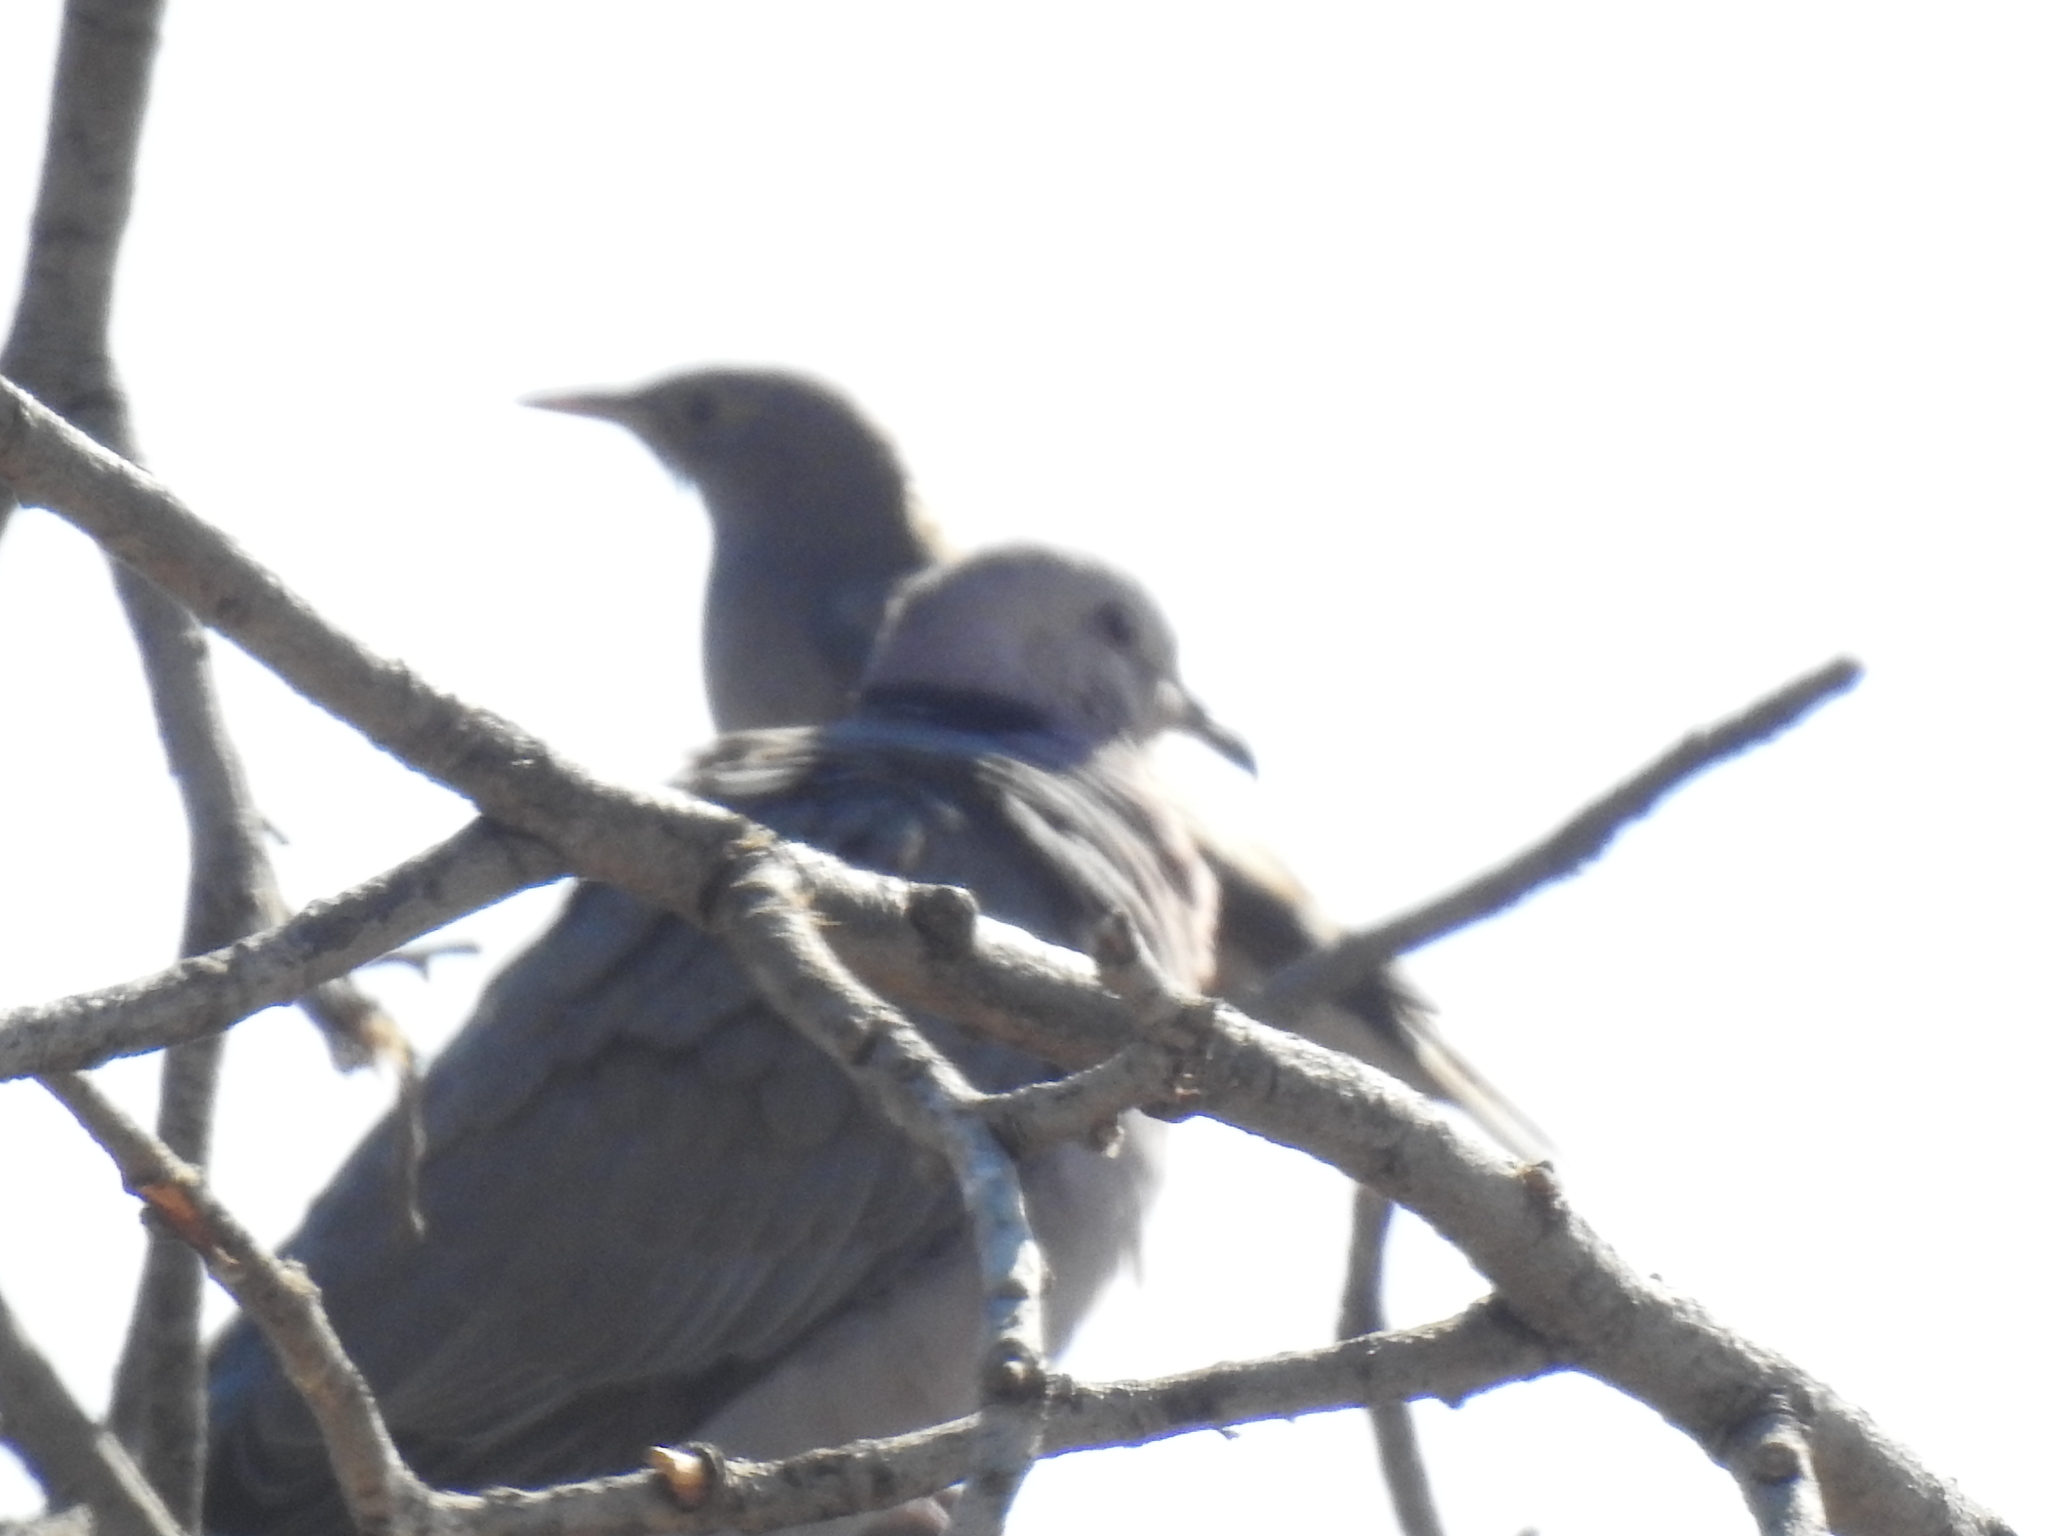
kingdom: Animalia
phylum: Chordata
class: Aves
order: Columbiformes
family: Columbidae
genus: Streptopelia
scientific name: Streptopelia semitorquata
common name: Red-eyed dove
